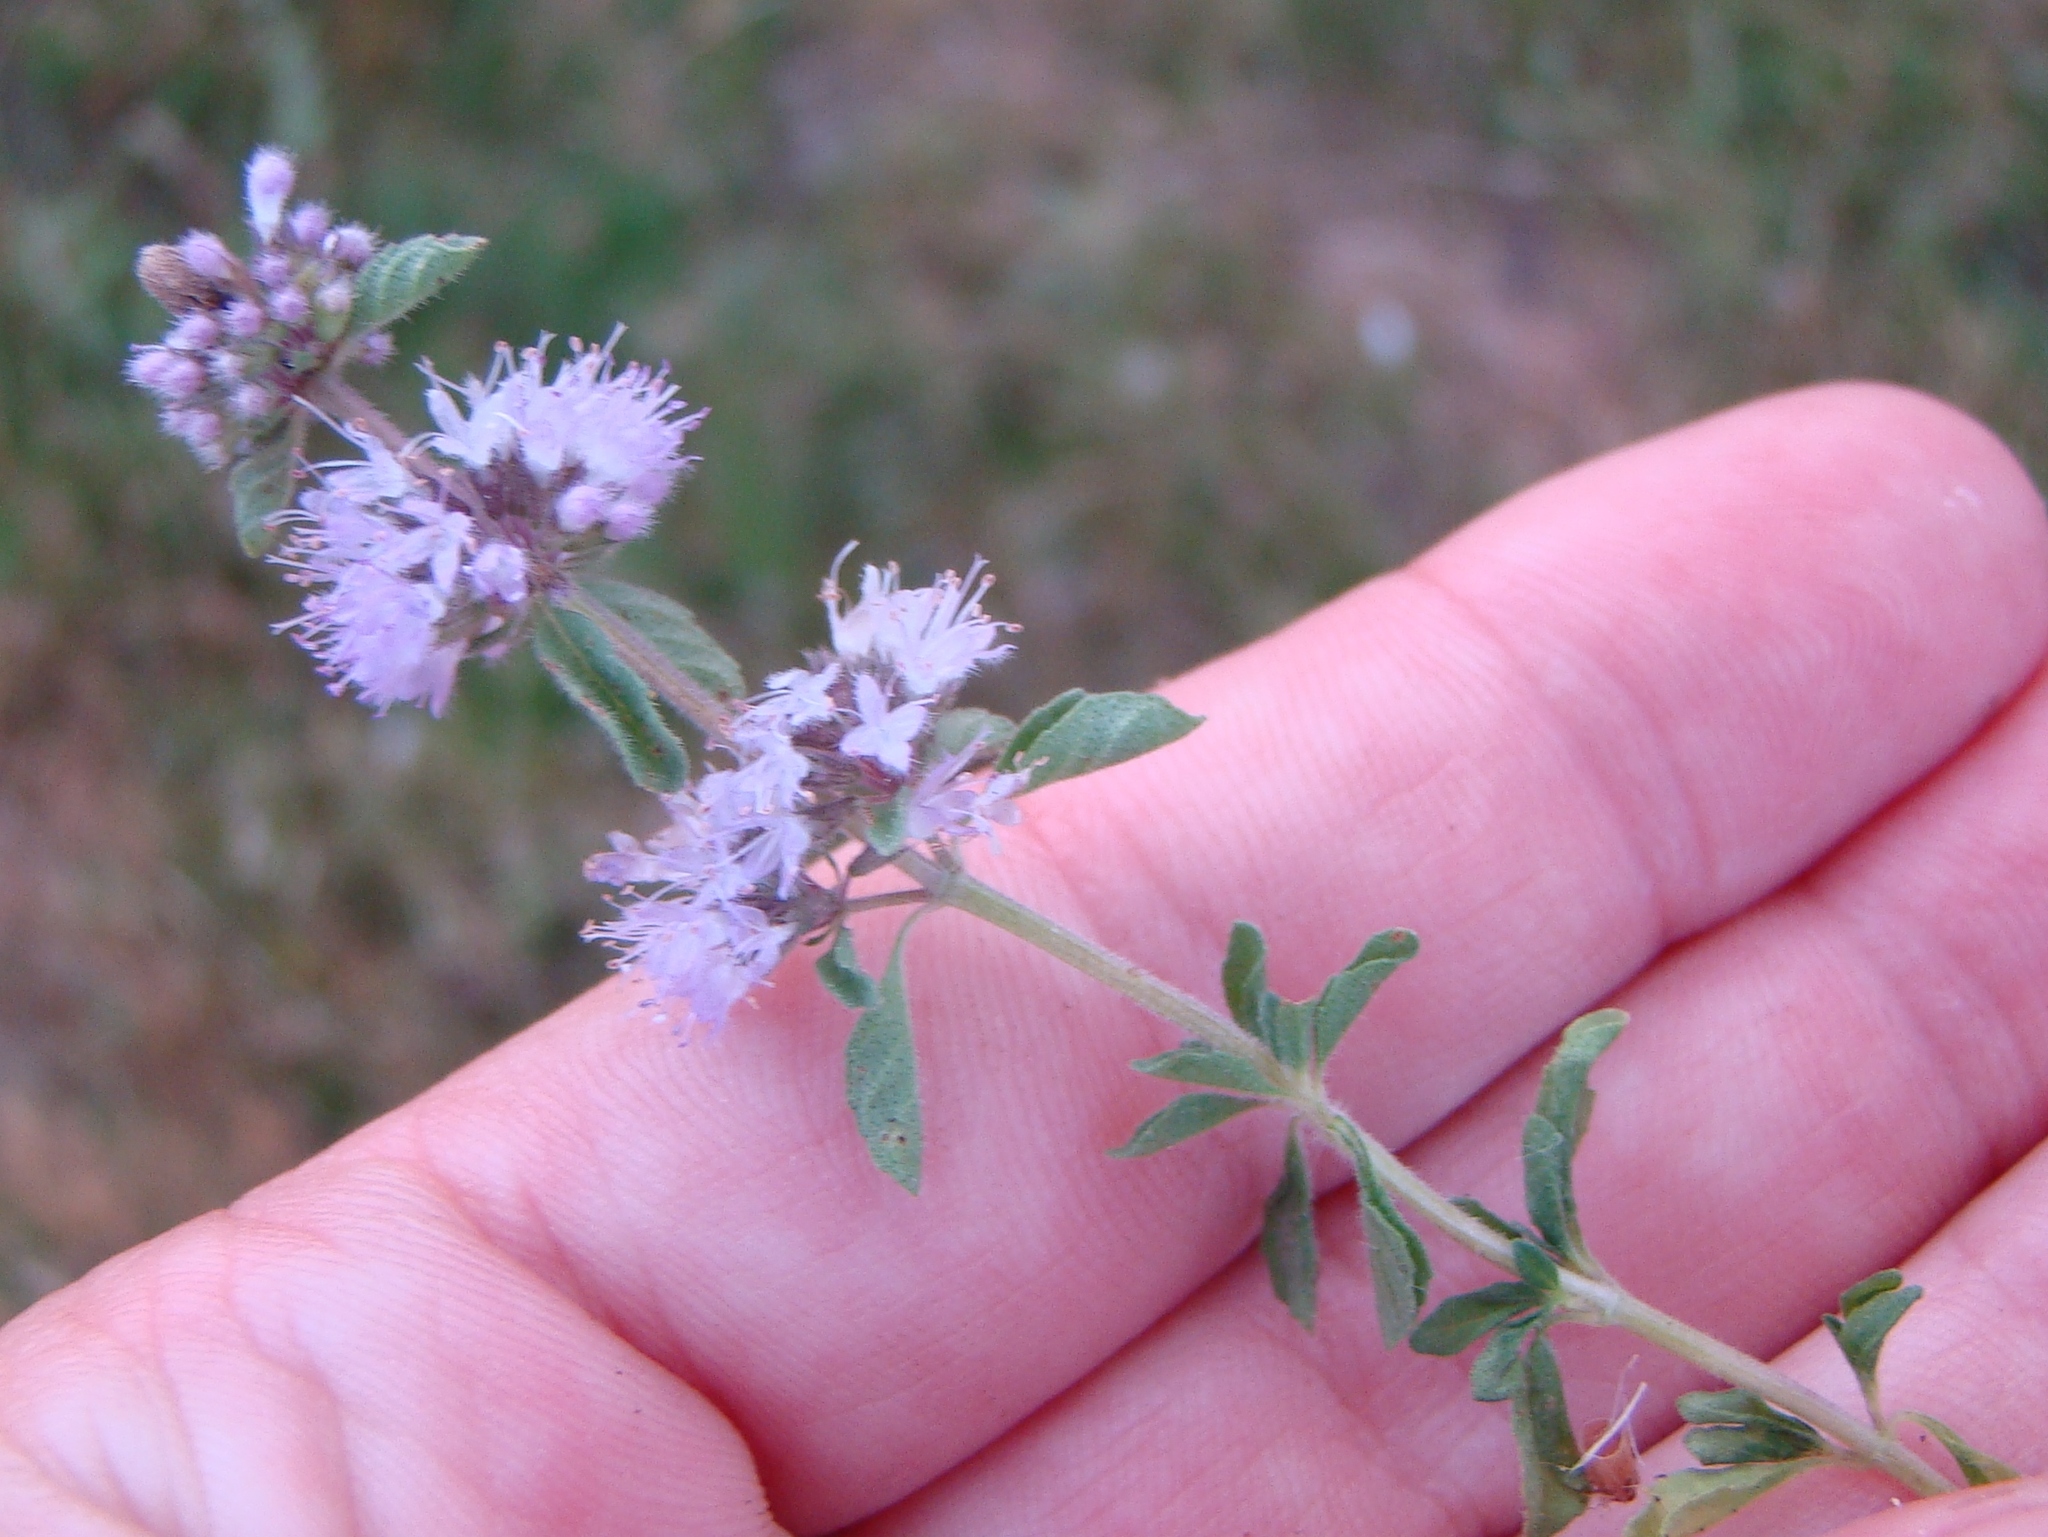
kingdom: Plantae
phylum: Tracheophyta
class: Magnoliopsida
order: Lamiales
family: Lamiaceae
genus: Mentha
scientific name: Mentha pulegium
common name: Pennyroyal
